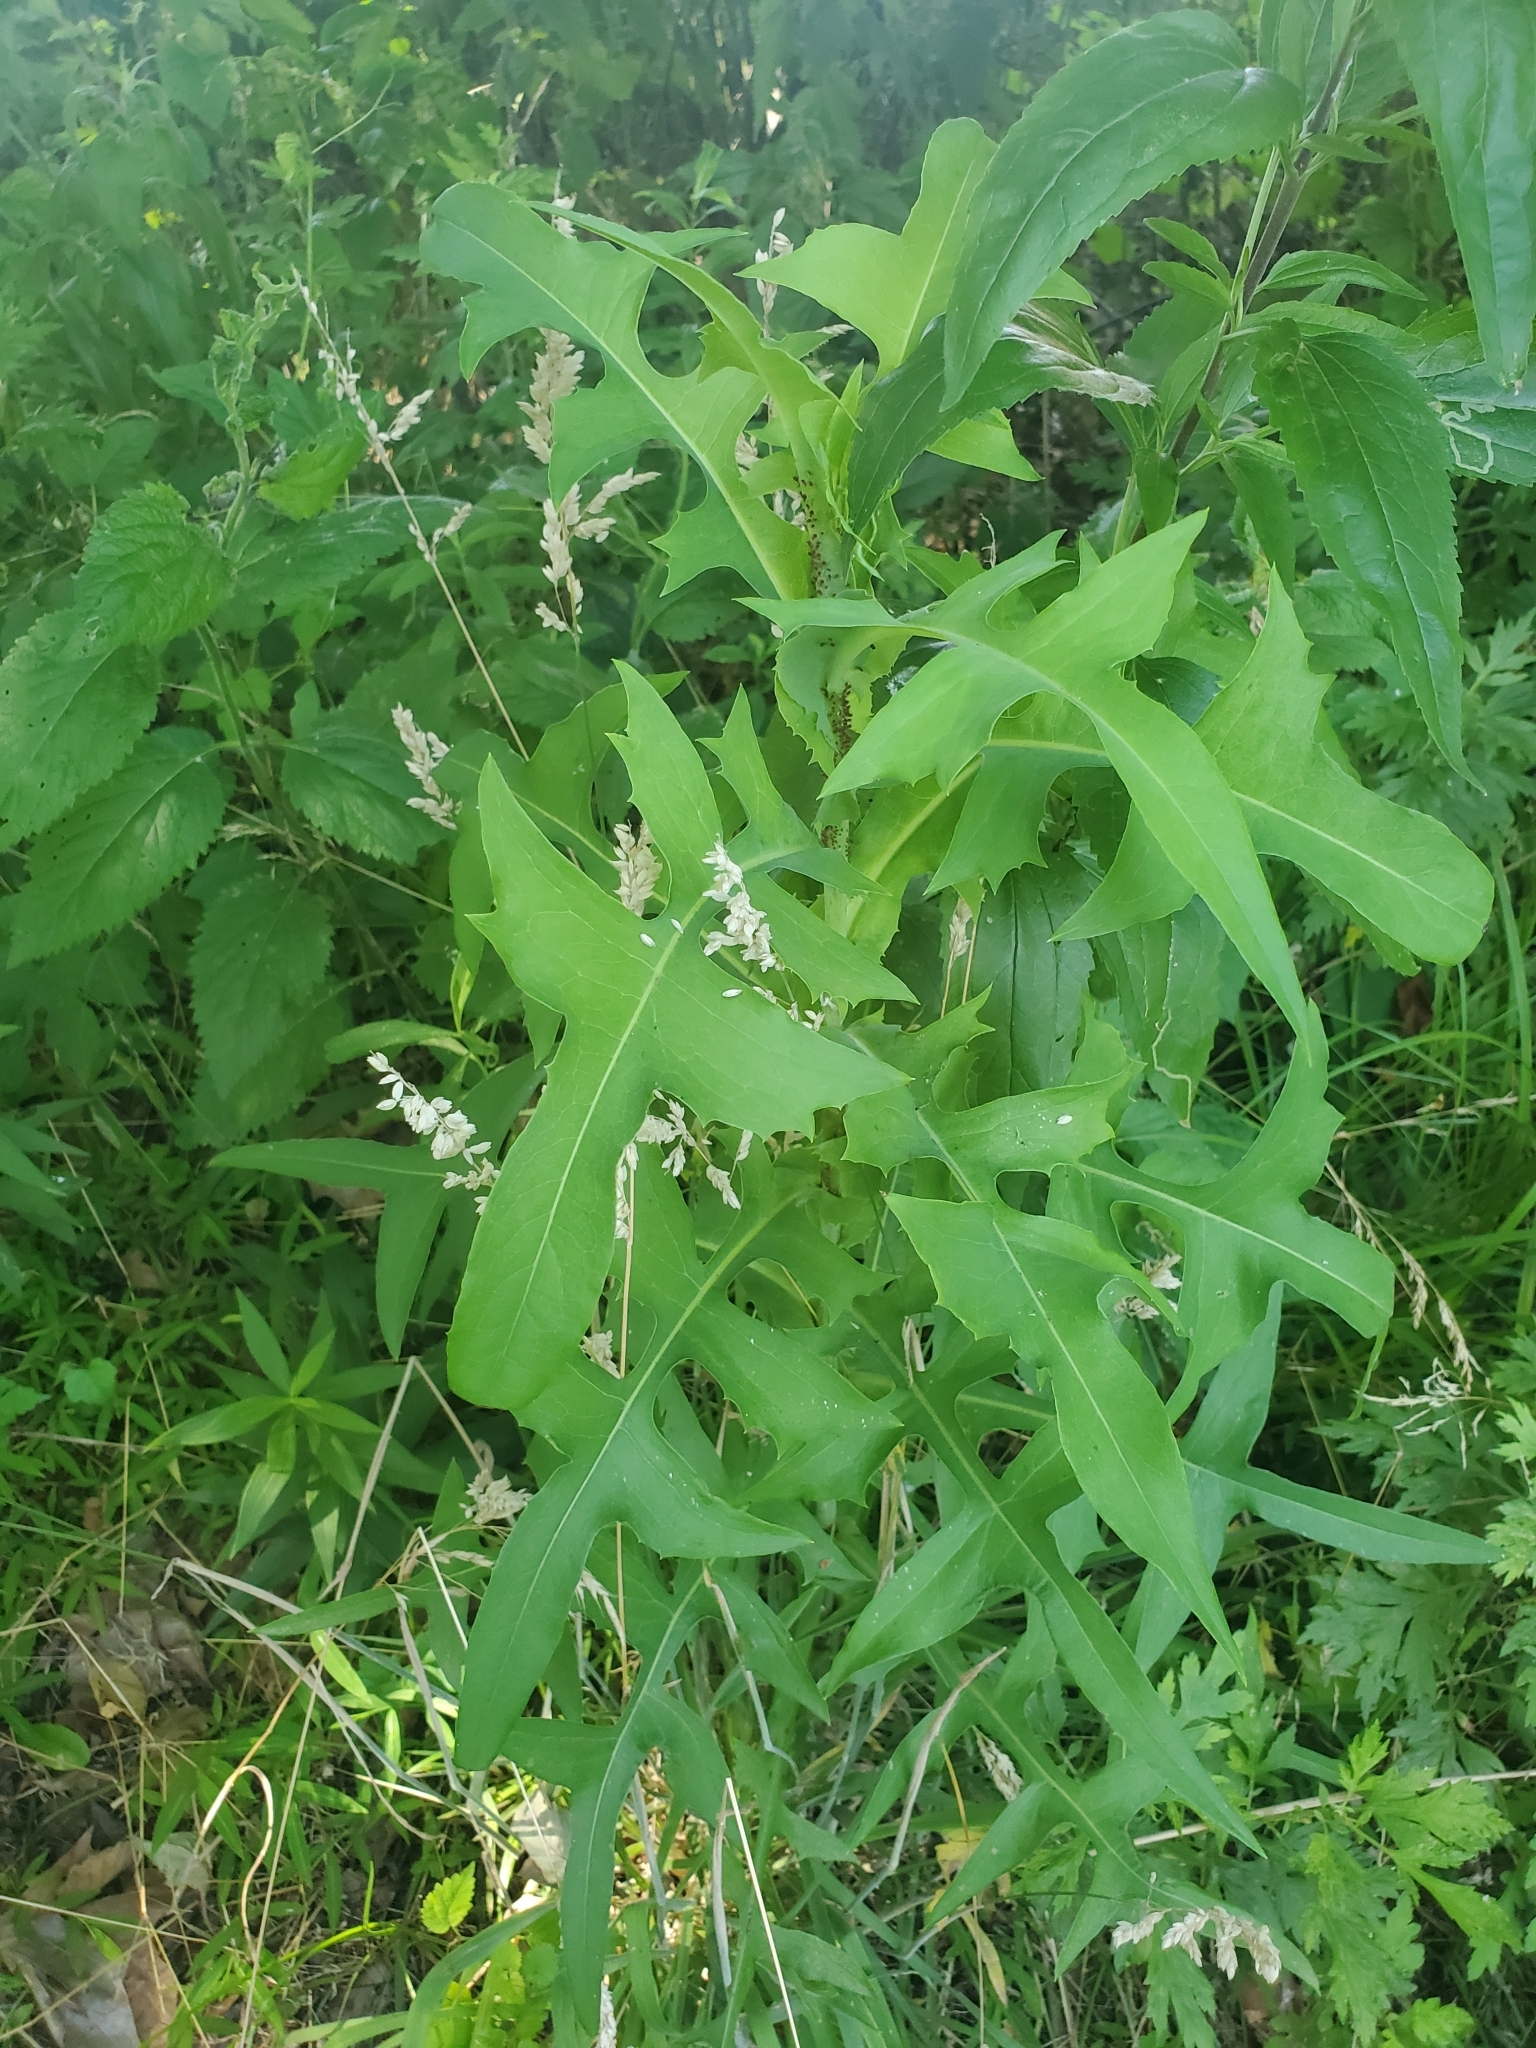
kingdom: Plantae
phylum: Tracheophyta
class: Magnoliopsida
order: Asterales
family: Asteraceae
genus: Lactuca
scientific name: Lactuca canadensis
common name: Canada lettuce
